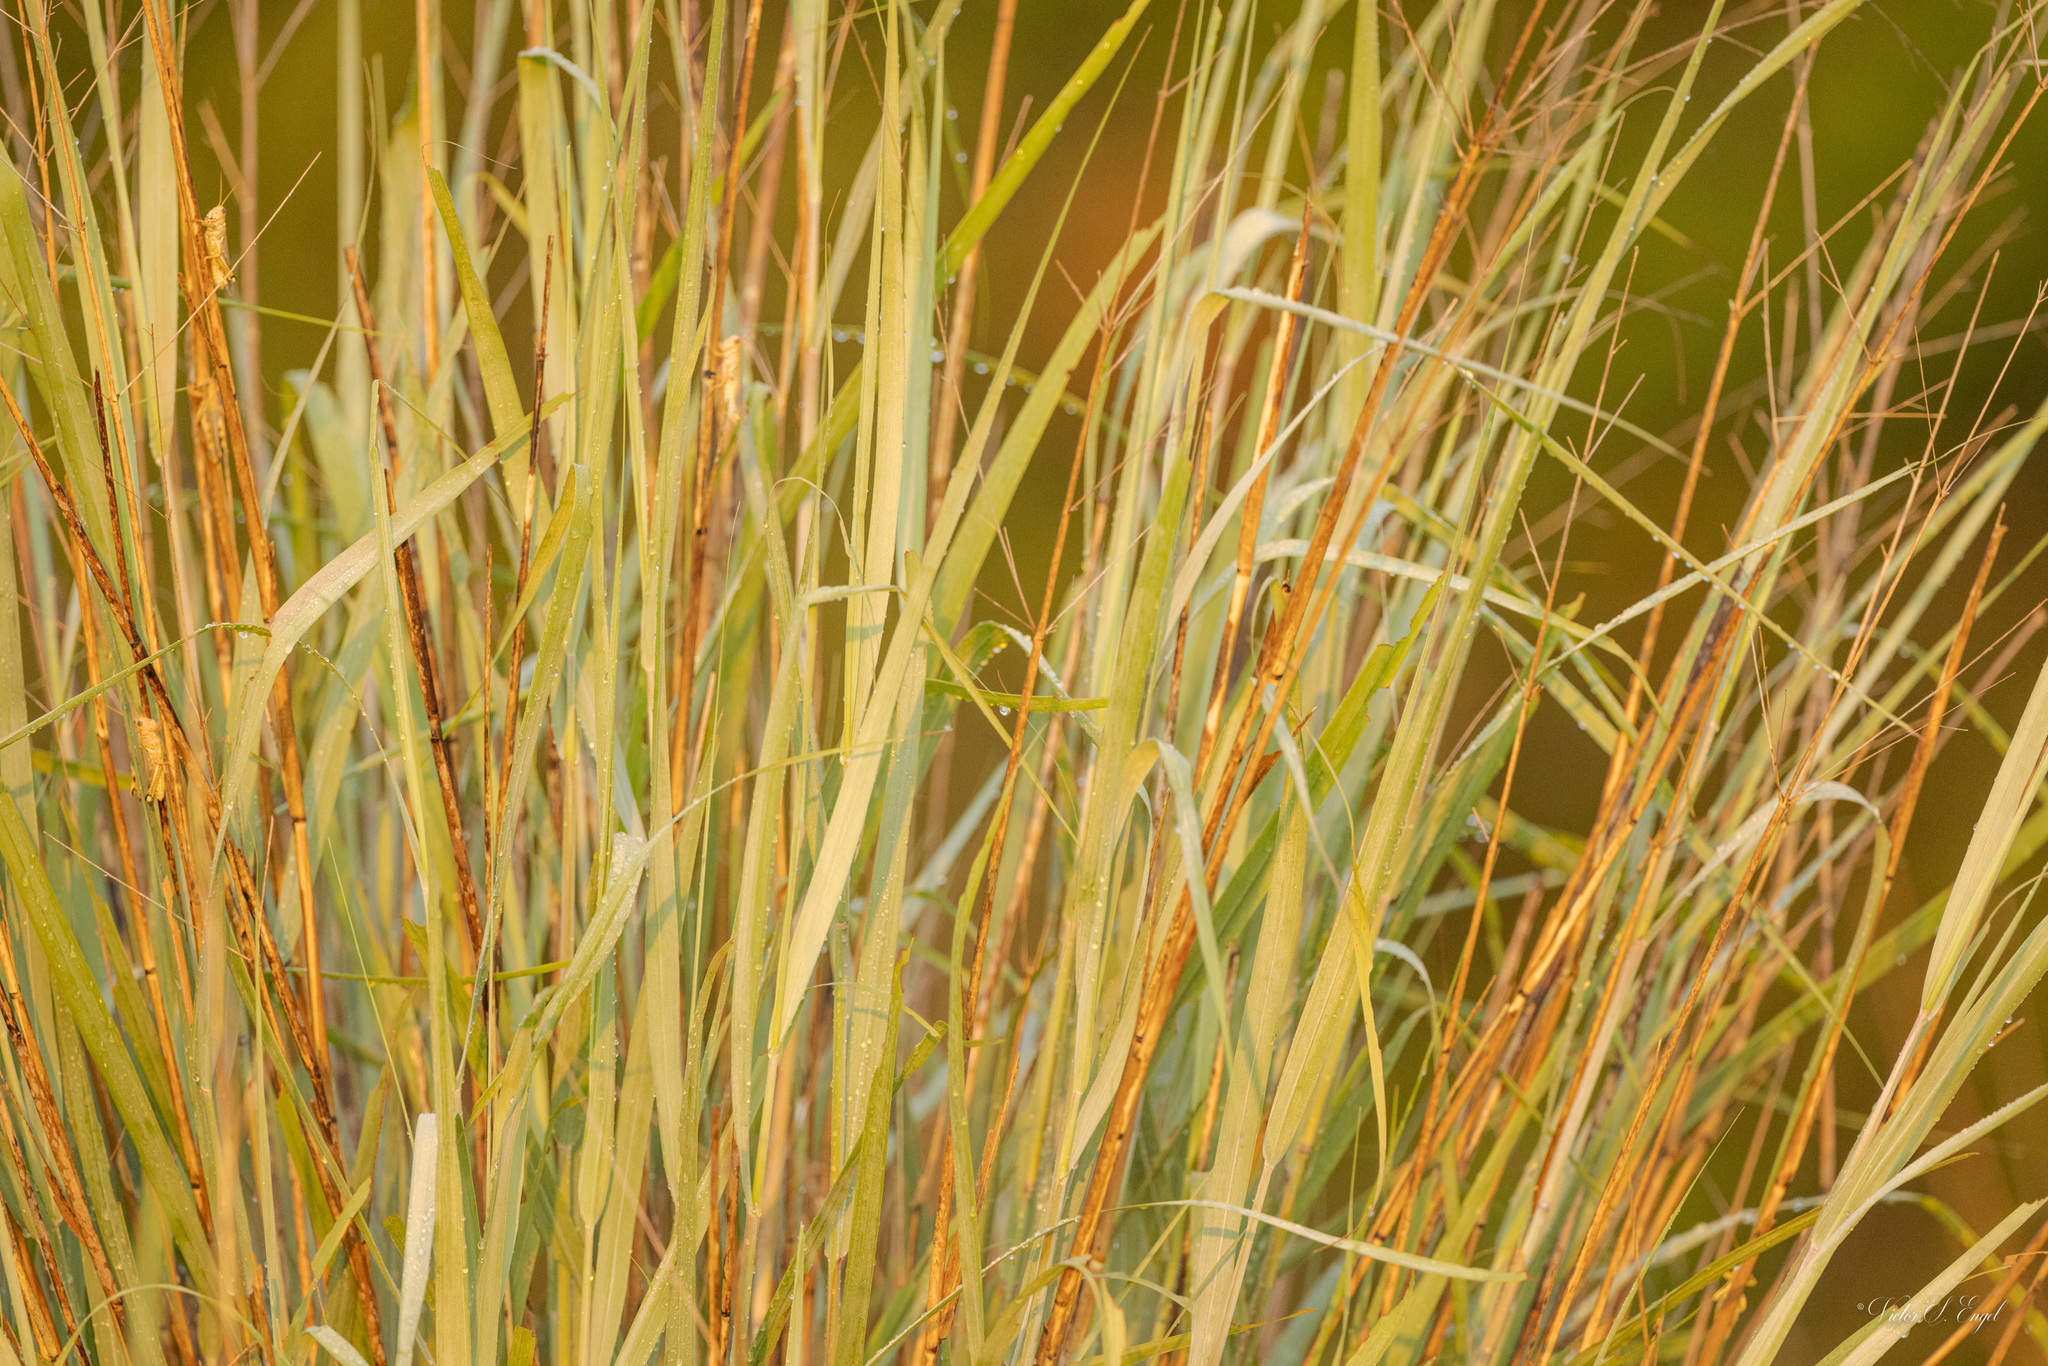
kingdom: Plantae
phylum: Tracheophyta
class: Liliopsida
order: Poales
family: Poaceae
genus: Panicum
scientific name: Panicum virgatum
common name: Switchgrass
